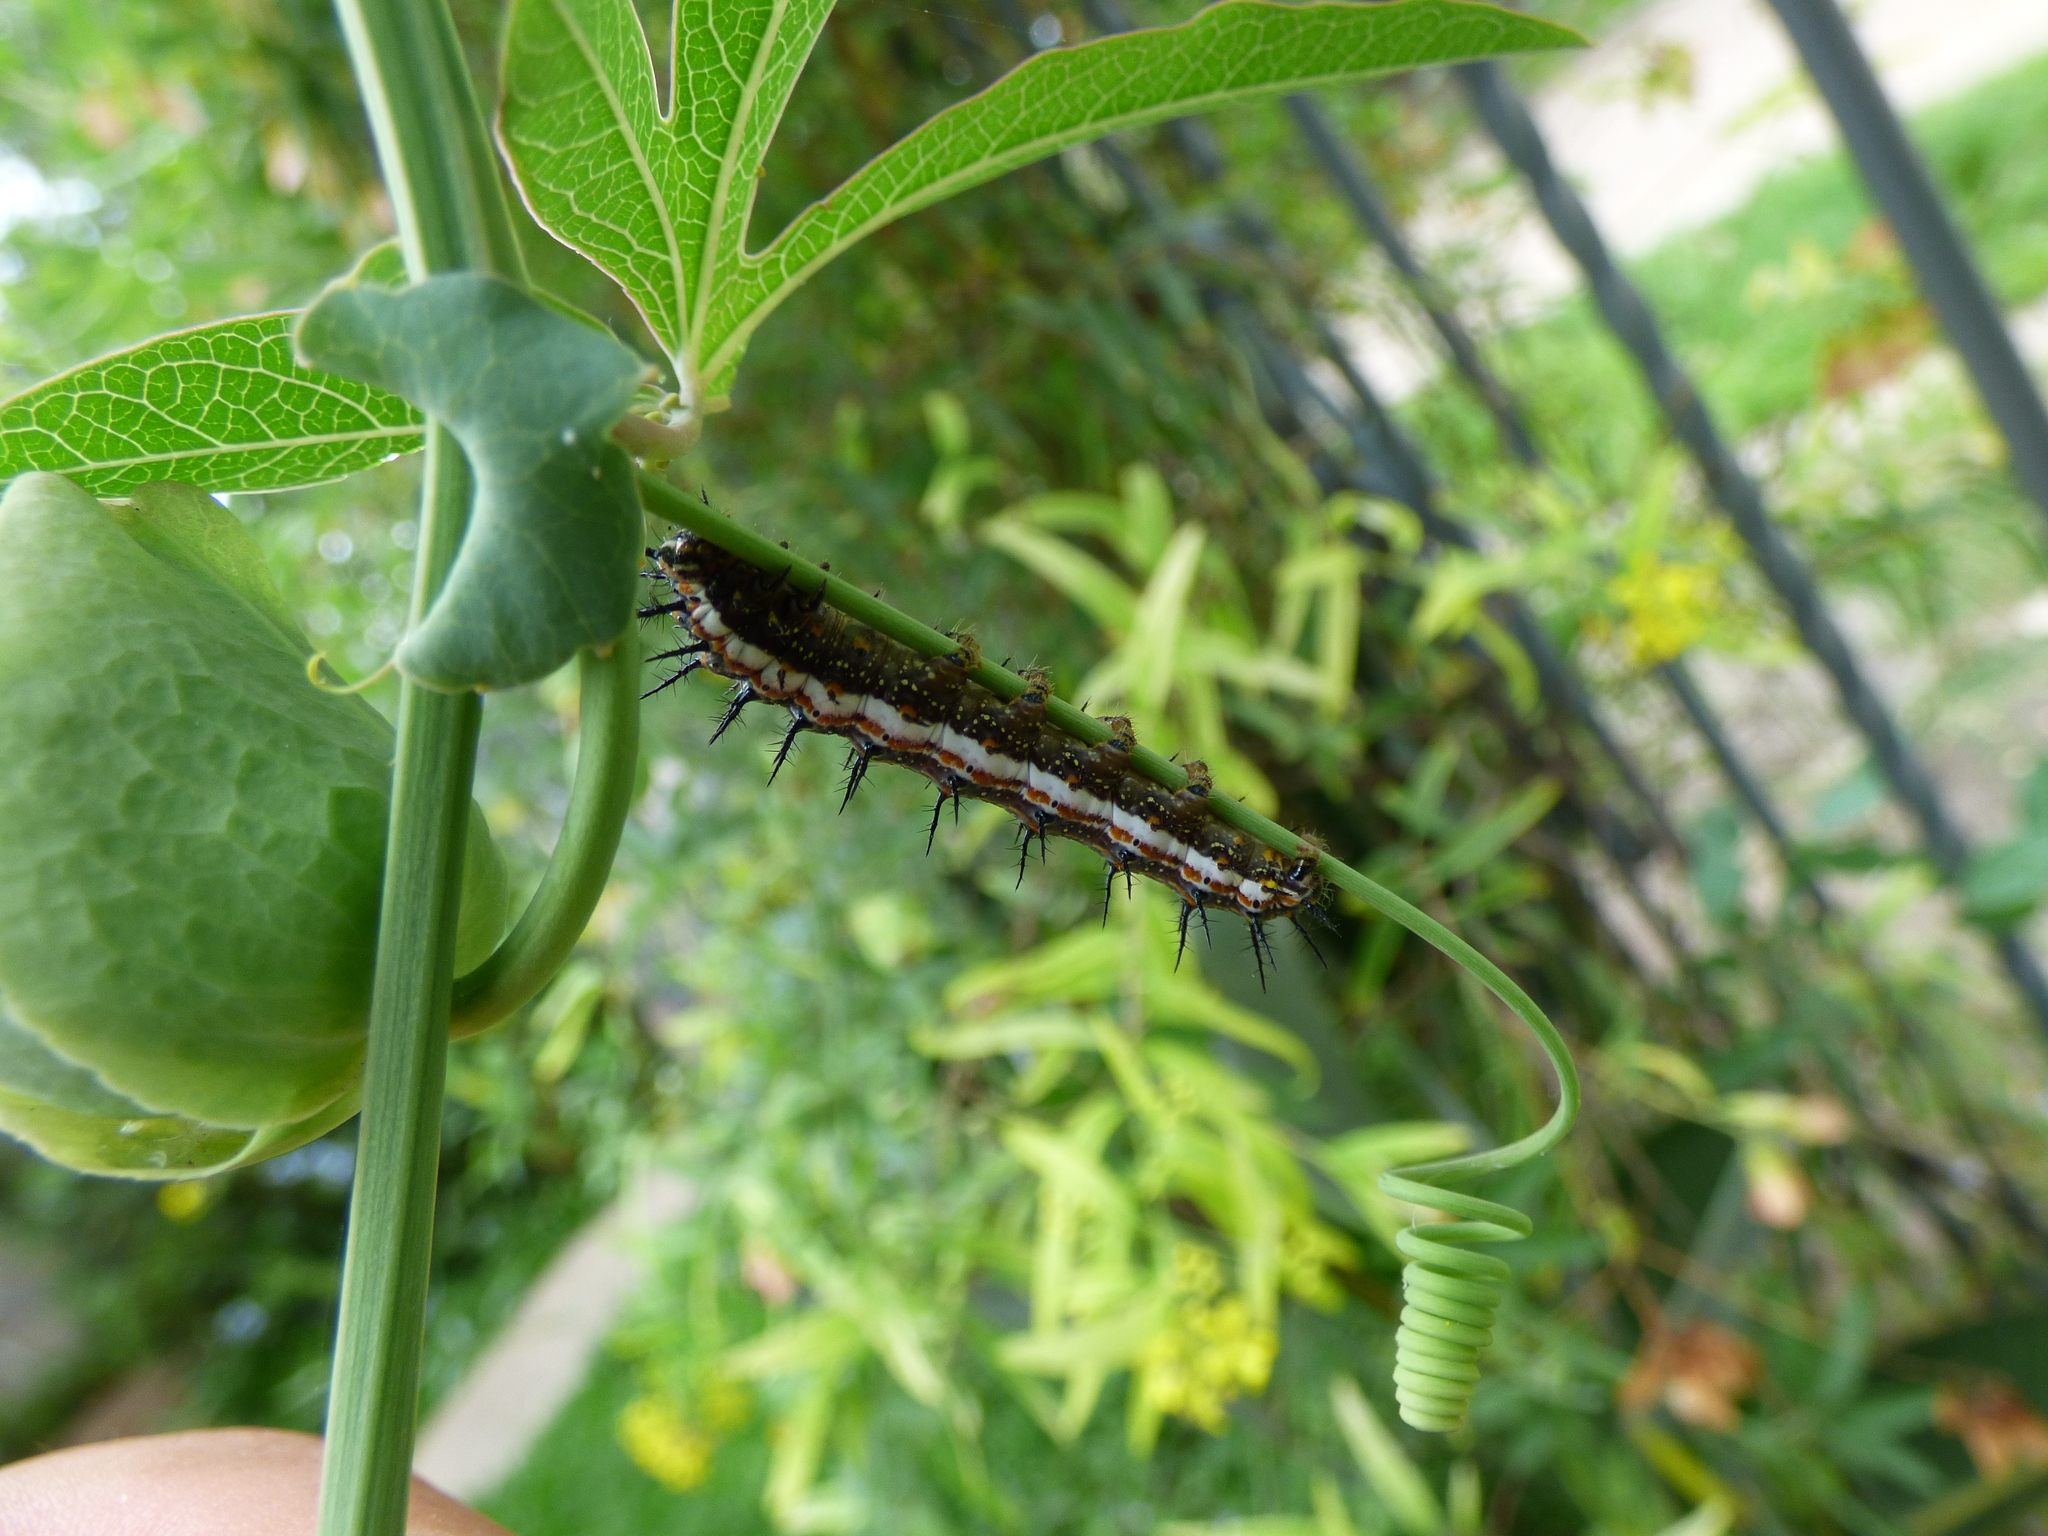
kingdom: Animalia
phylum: Arthropoda
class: Insecta
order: Lepidoptera
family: Nymphalidae
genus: Dione
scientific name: Dione vanillae
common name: Gulf fritillary
